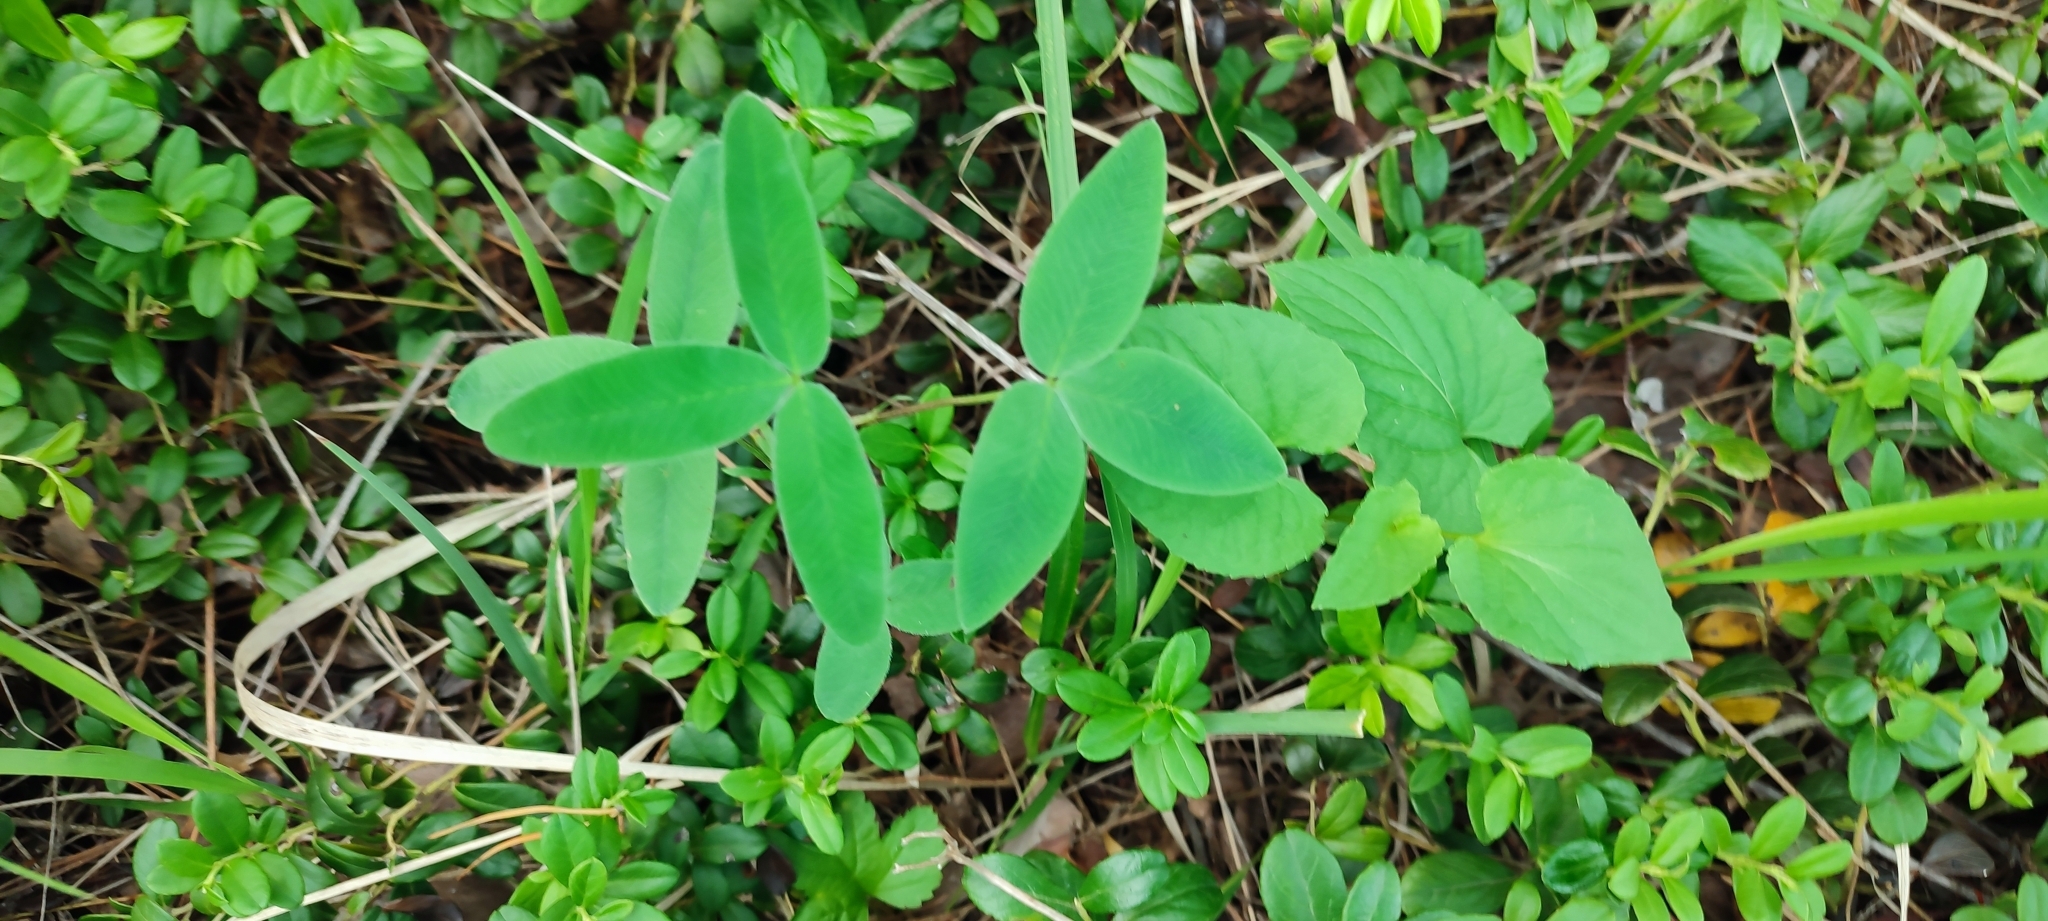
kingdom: Plantae
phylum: Tracheophyta
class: Magnoliopsida
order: Fabales
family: Fabaceae
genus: Trifolium
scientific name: Trifolium medium
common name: Zigzag clover
